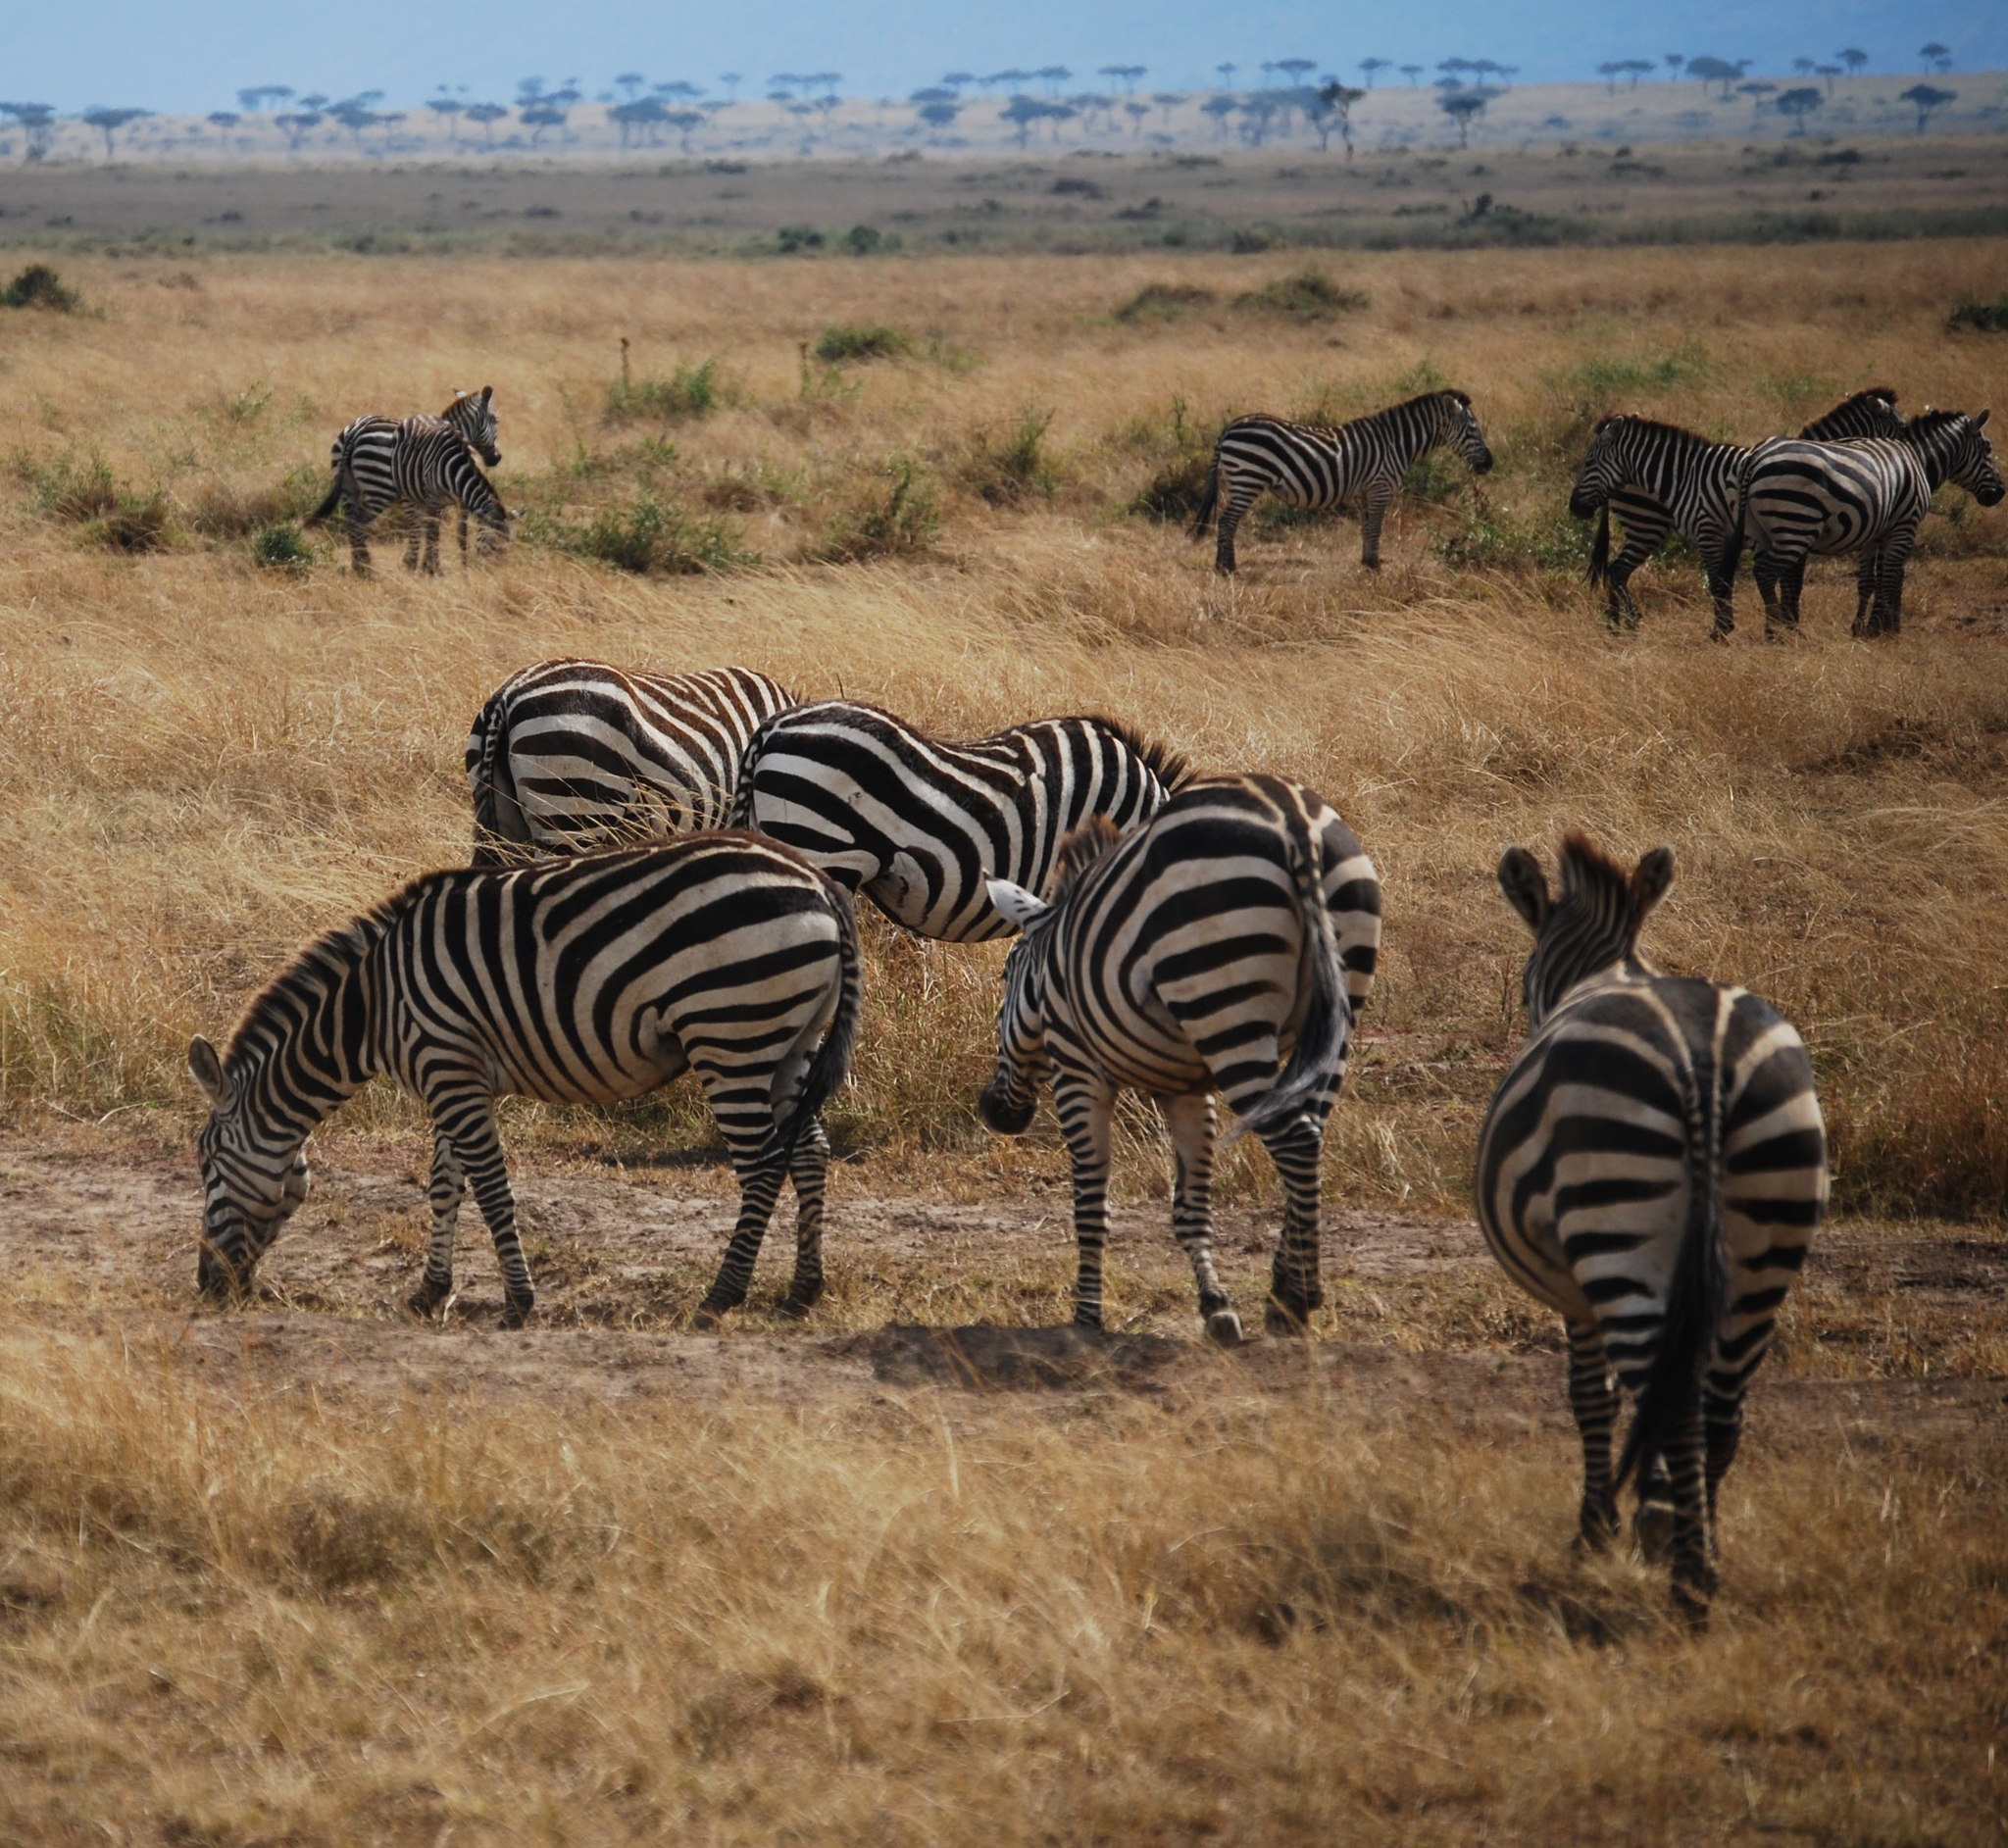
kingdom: Animalia
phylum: Chordata
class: Mammalia
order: Perissodactyla
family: Equidae
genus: Equus
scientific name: Equus quagga
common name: Plains zebra
